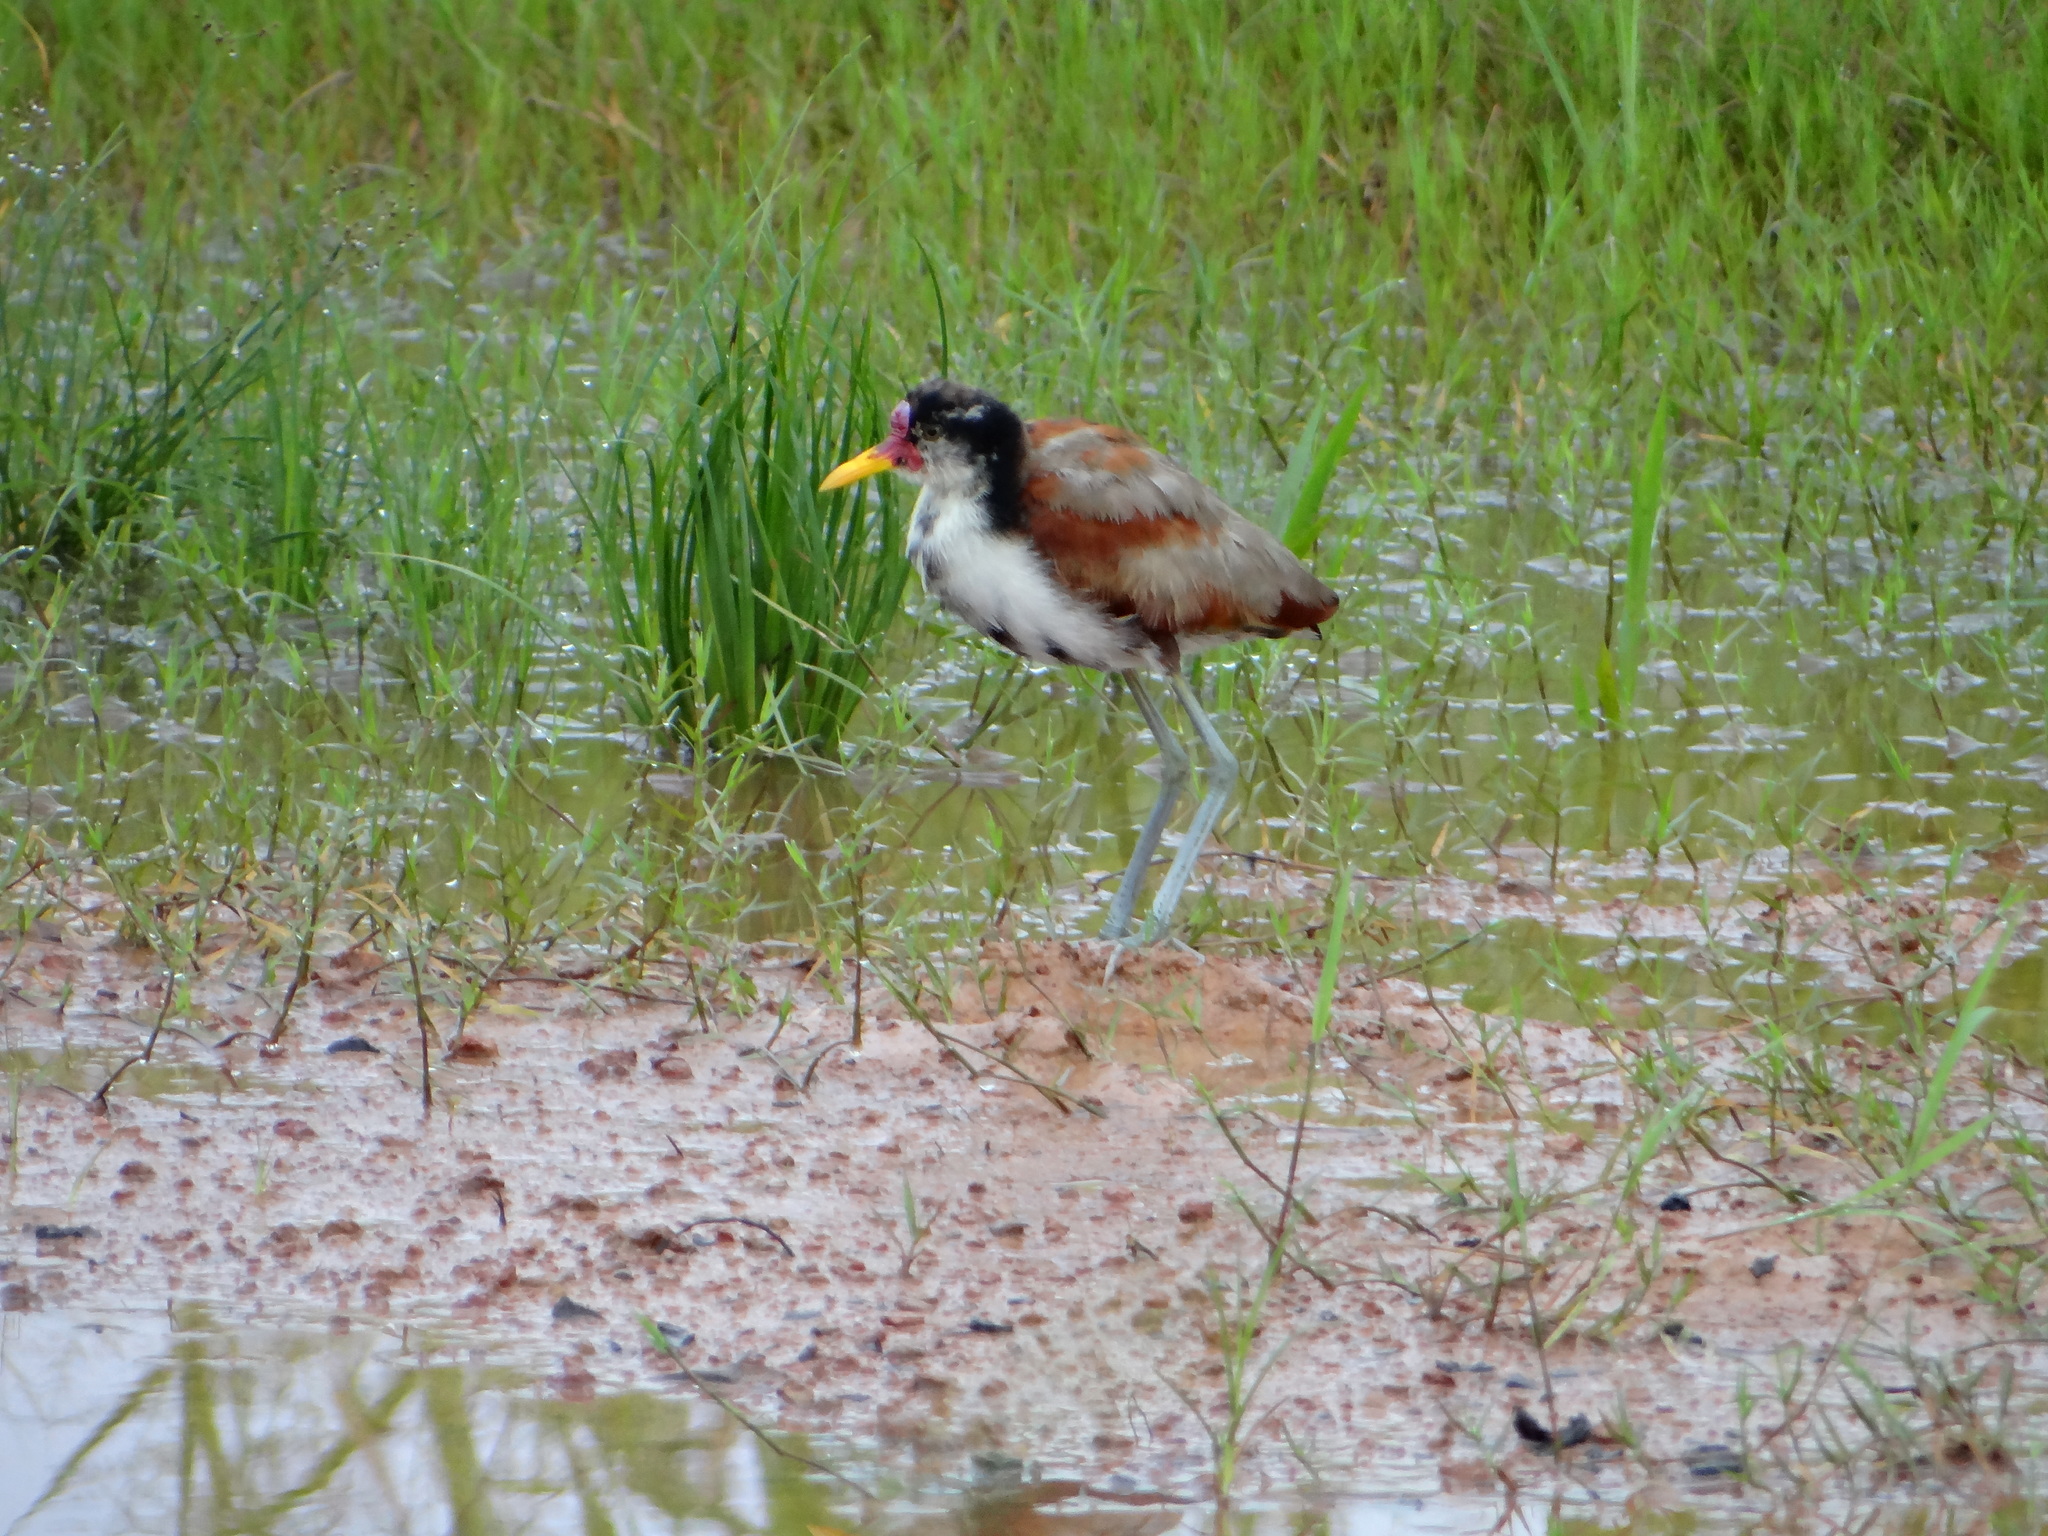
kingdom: Animalia
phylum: Chordata
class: Aves
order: Charadriiformes
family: Jacanidae
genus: Jacana
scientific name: Jacana jacana
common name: Wattled jacana
